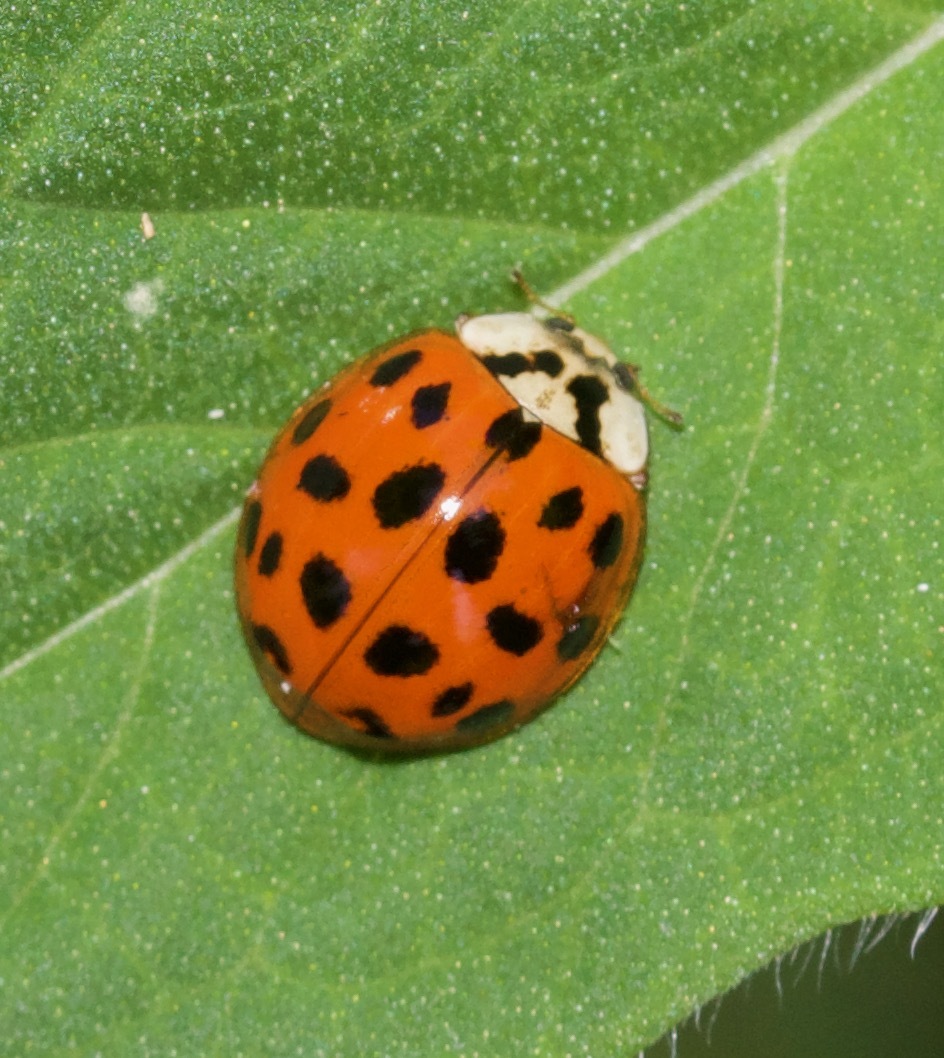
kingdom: Animalia
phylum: Arthropoda
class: Insecta
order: Coleoptera
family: Coccinellidae
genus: Harmonia
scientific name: Harmonia axyridis
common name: Harlequin ladybird
